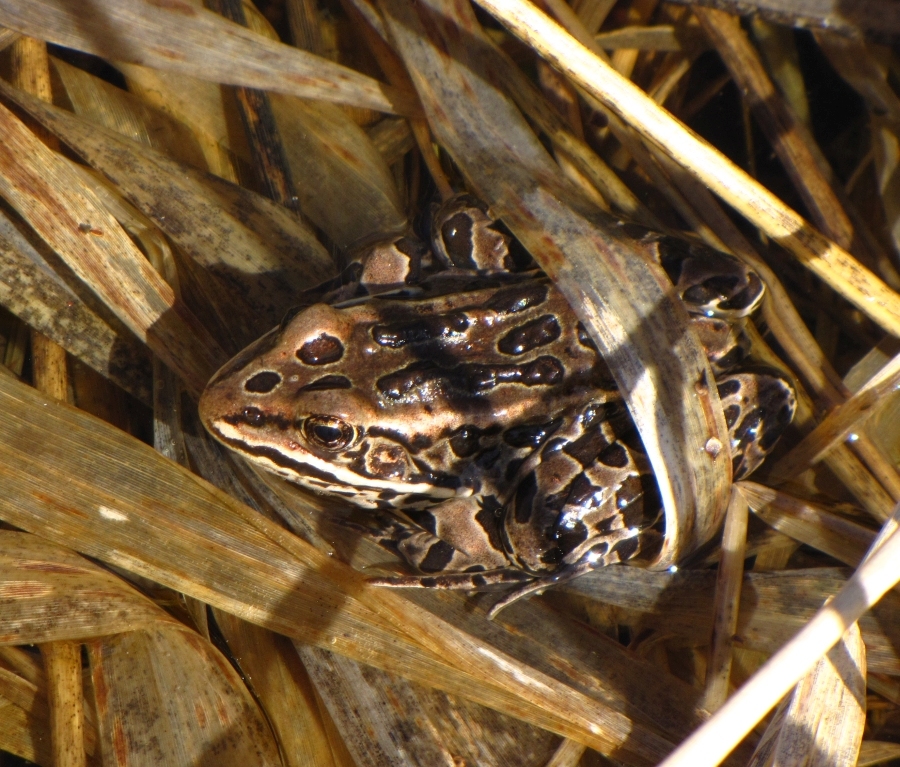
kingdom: Animalia
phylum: Chordata
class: Amphibia
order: Anura
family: Ranidae
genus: Lithobates
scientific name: Lithobates pipiens
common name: Northern leopard frog
